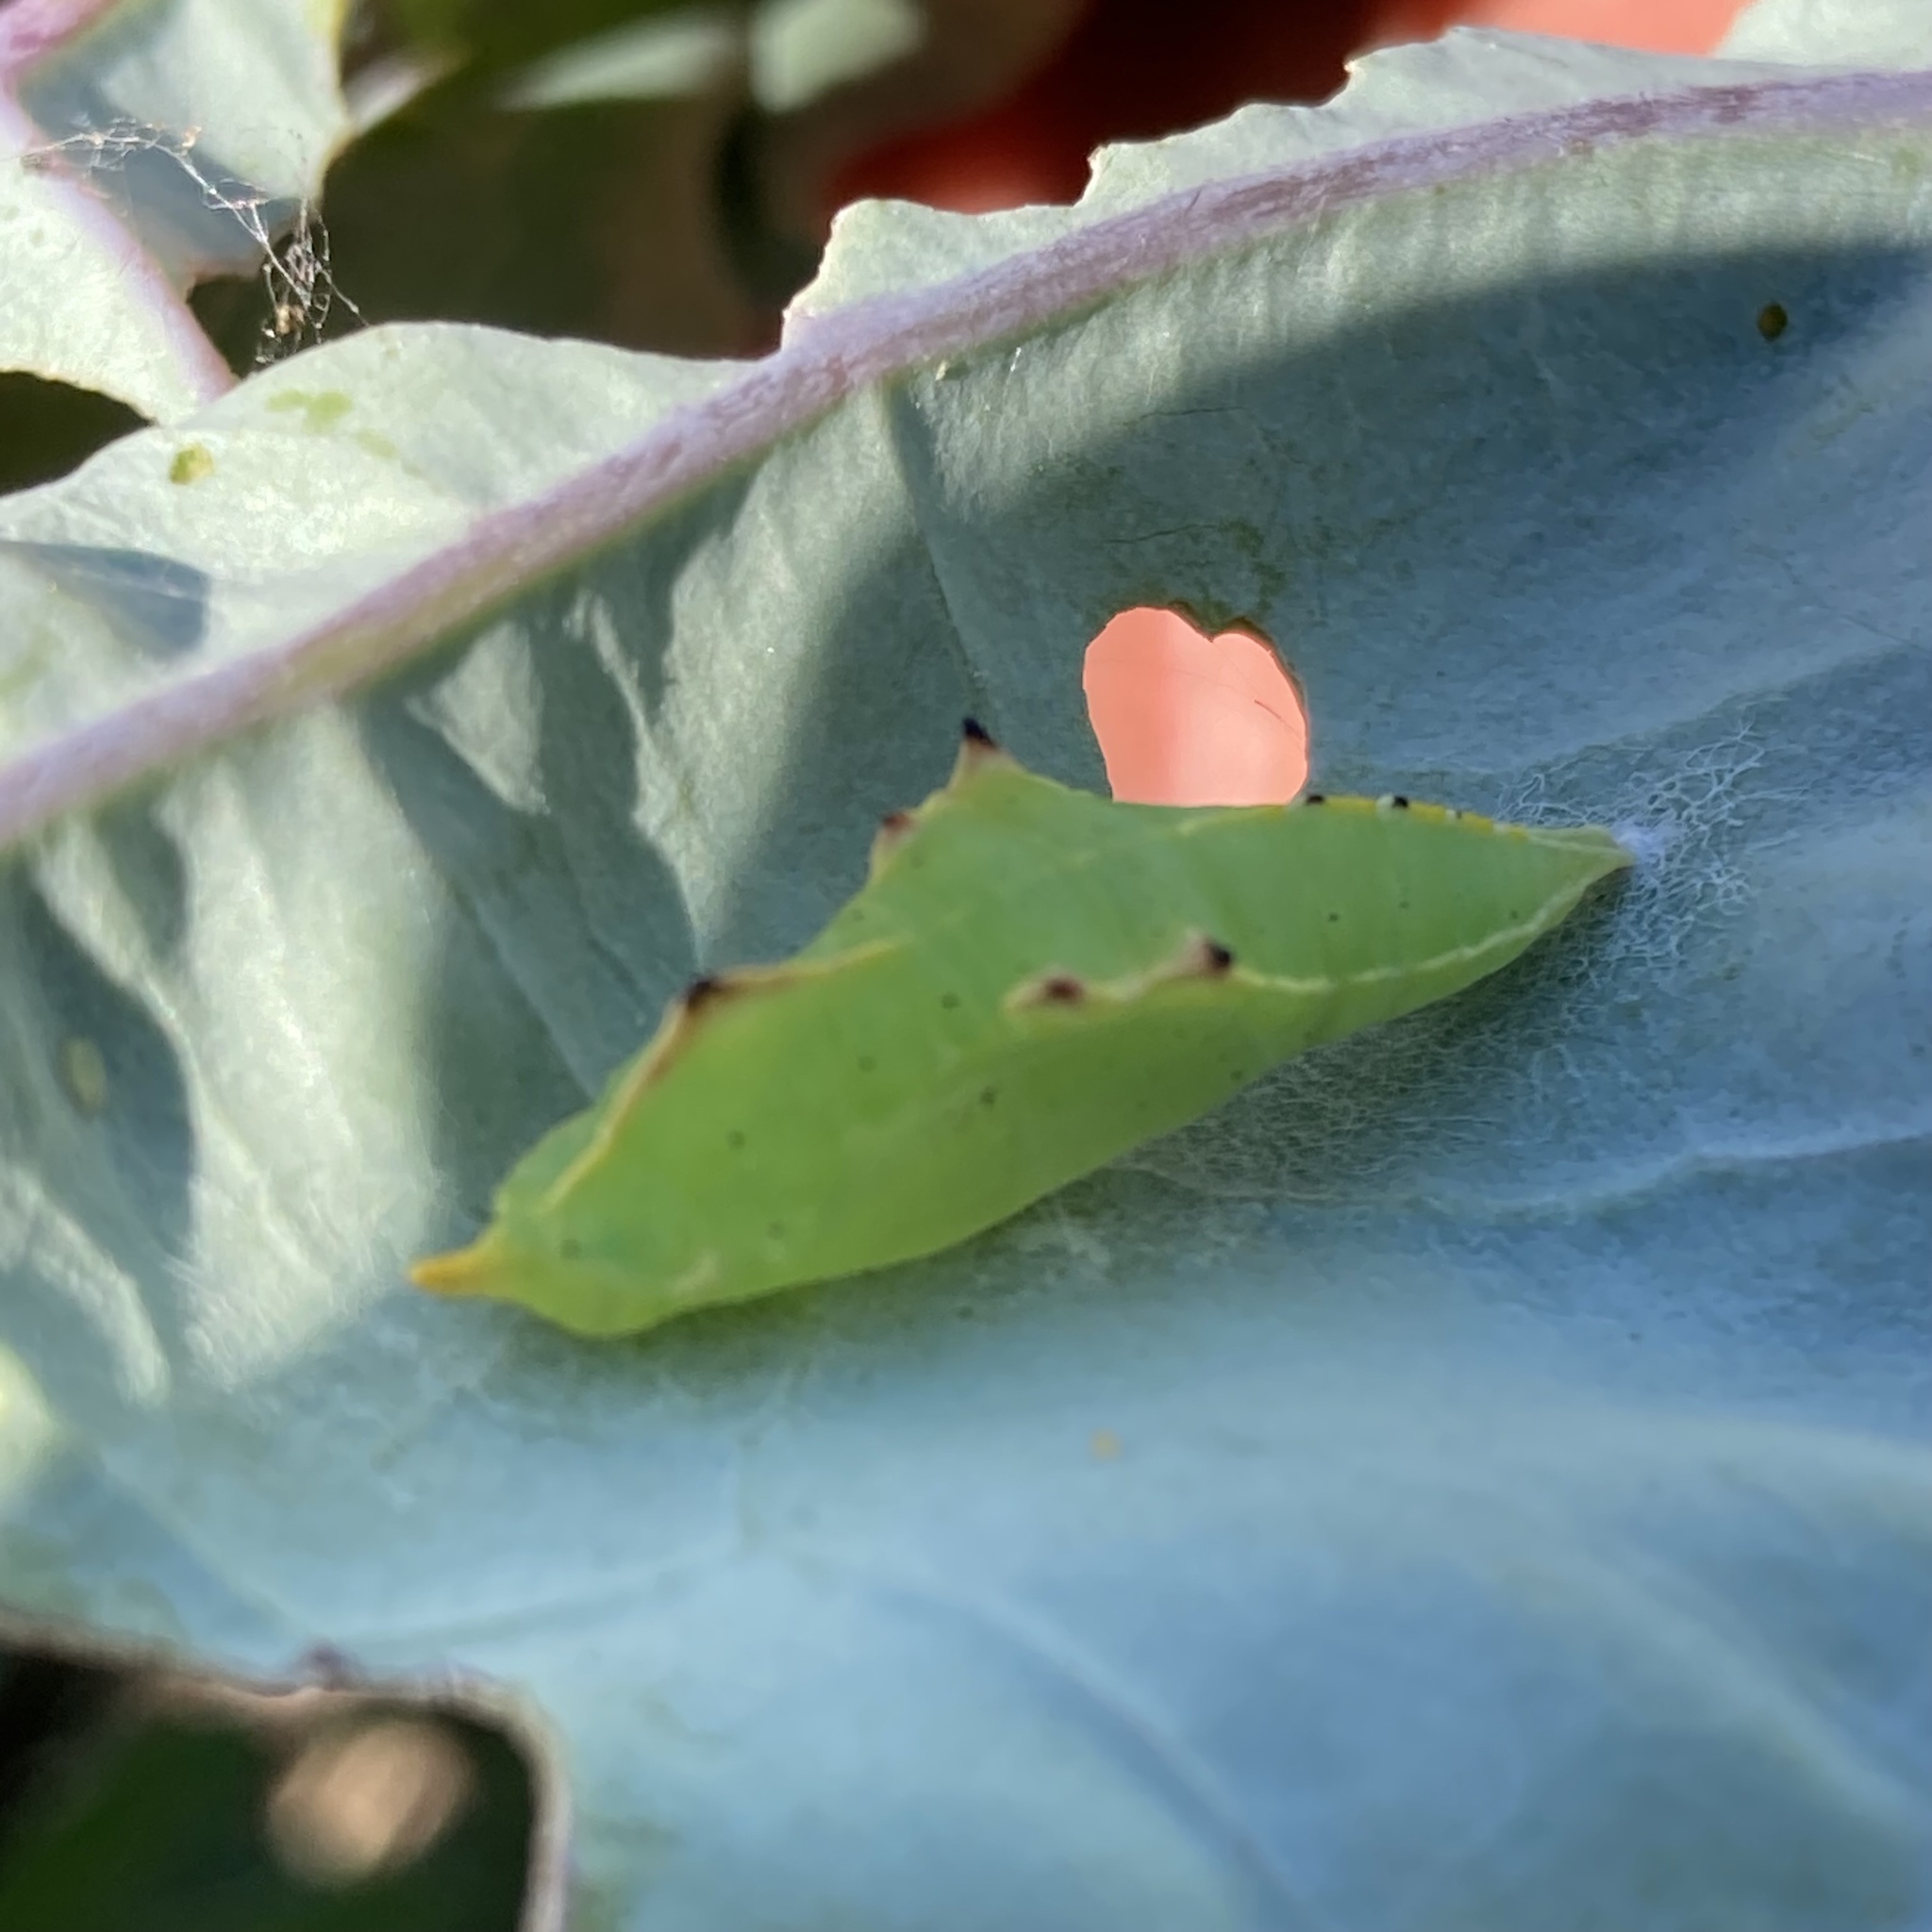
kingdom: Animalia
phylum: Arthropoda
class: Insecta
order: Lepidoptera
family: Pieridae
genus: Pieris
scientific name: Pieris rapae
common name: Small white
